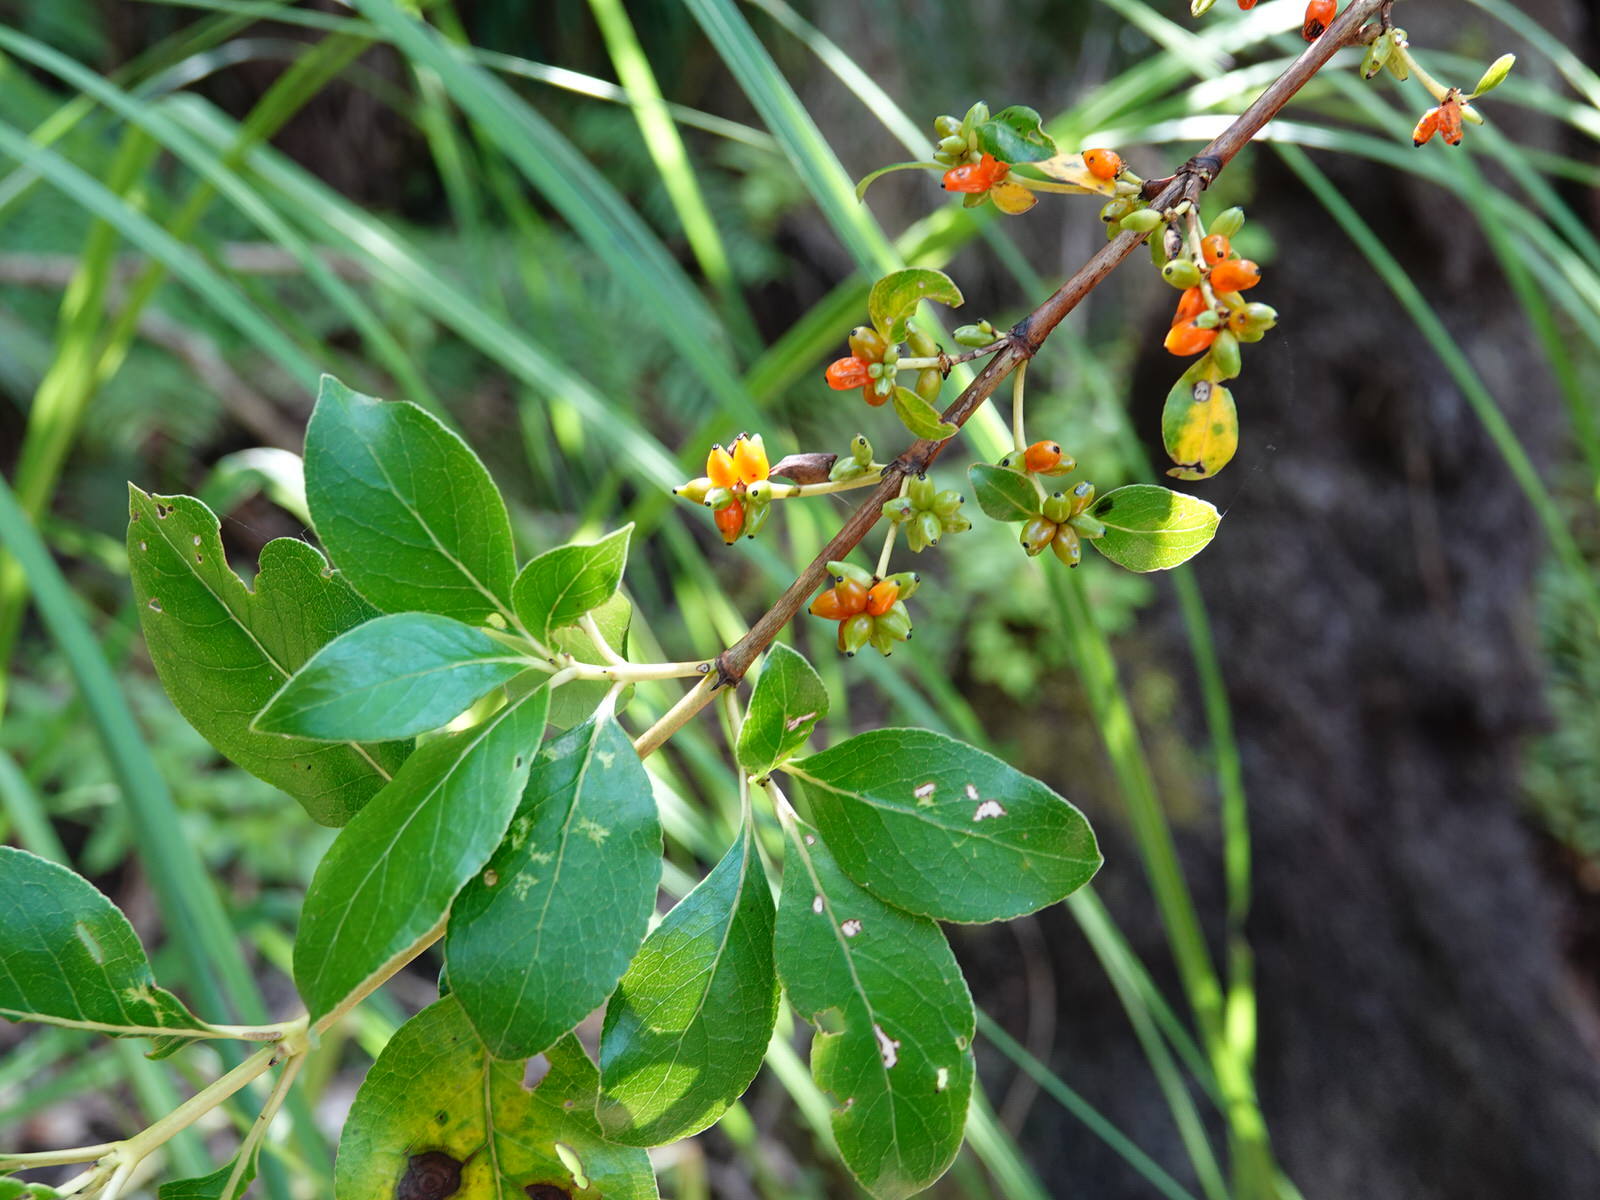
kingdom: Plantae
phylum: Tracheophyta
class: Magnoliopsida
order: Gentianales
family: Rubiaceae
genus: Coprosma
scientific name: Coprosma robusta
